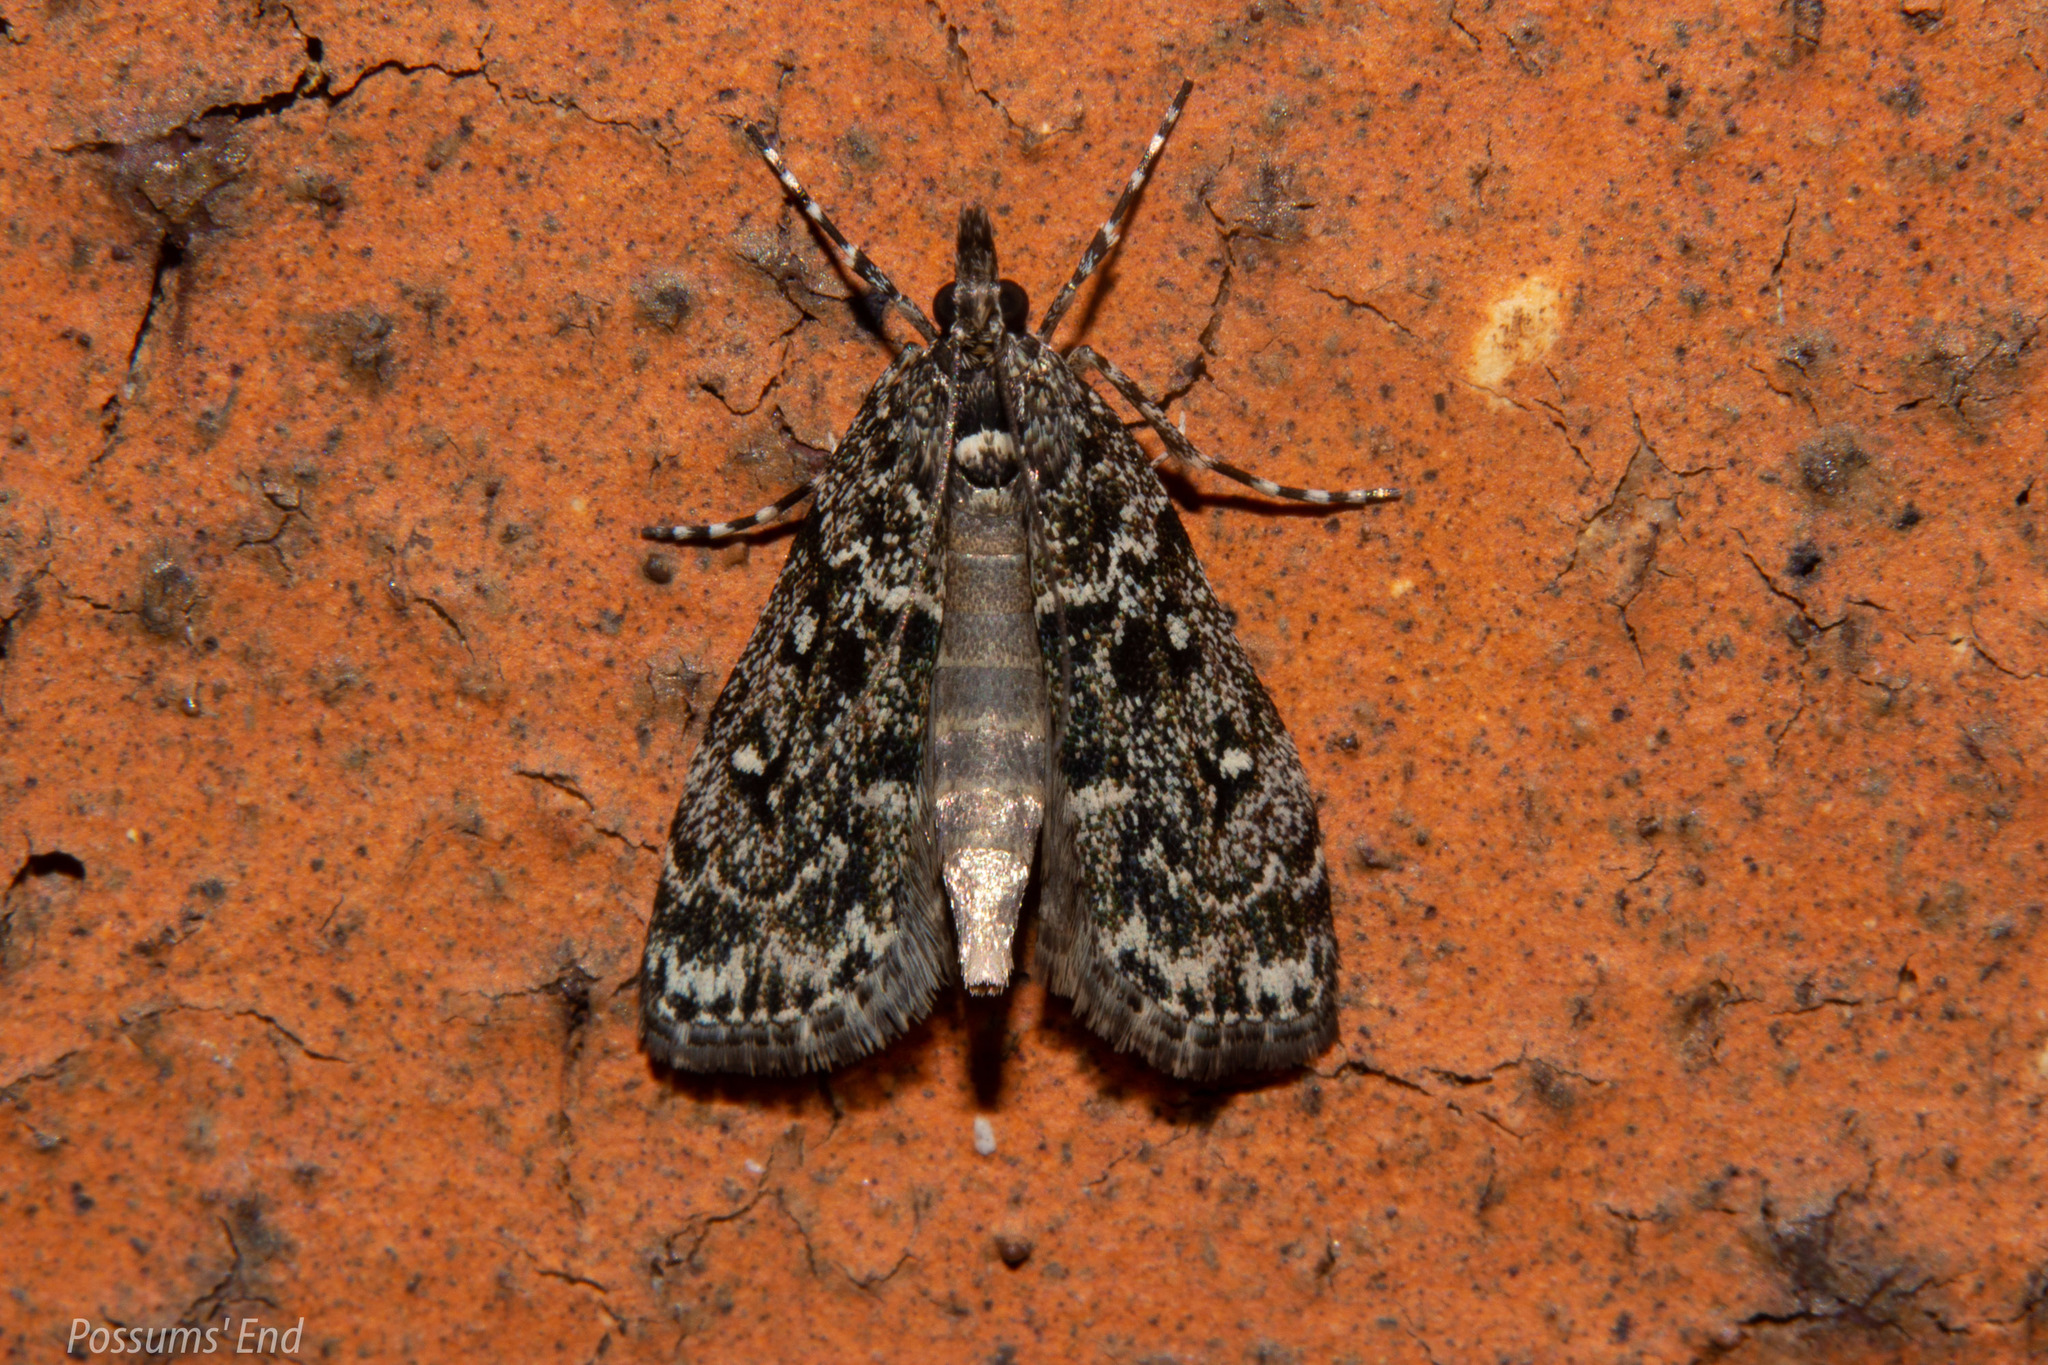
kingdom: Animalia
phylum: Arthropoda
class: Insecta
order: Lepidoptera
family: Crambidae
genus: Eudonia
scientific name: Eudonia philerga
